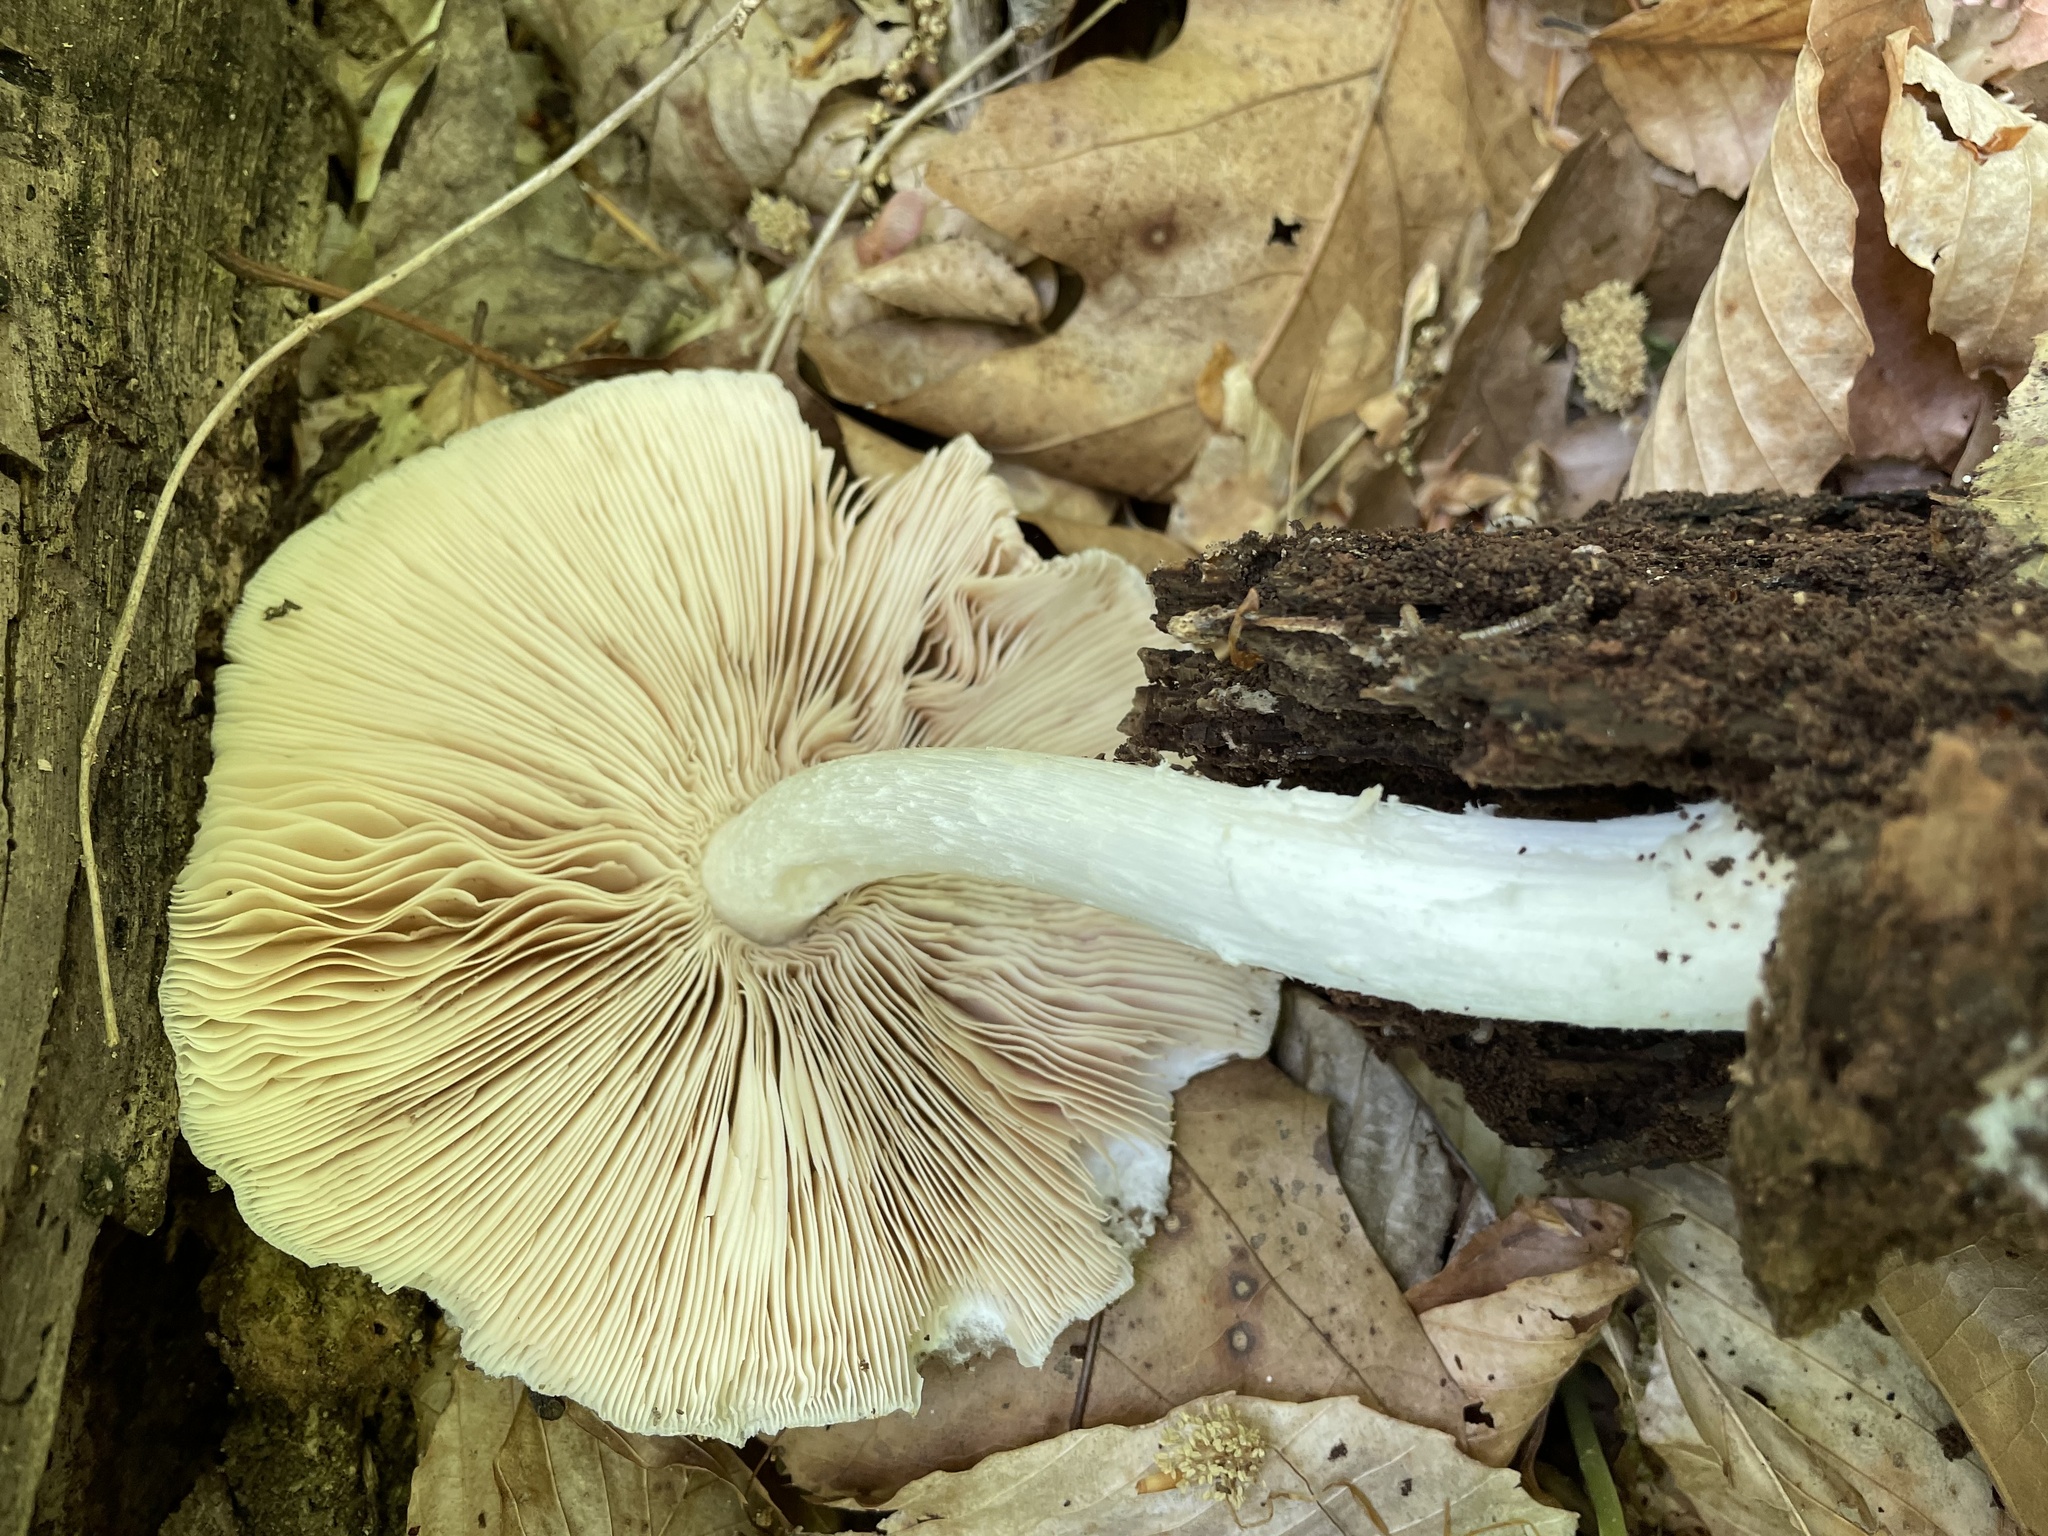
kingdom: Fungi
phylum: Basidiomycota
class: Agaricomycetes
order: Agaricales
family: Pluteaceae
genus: Pluteus
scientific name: Pluteus cervinus
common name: Deer shield
